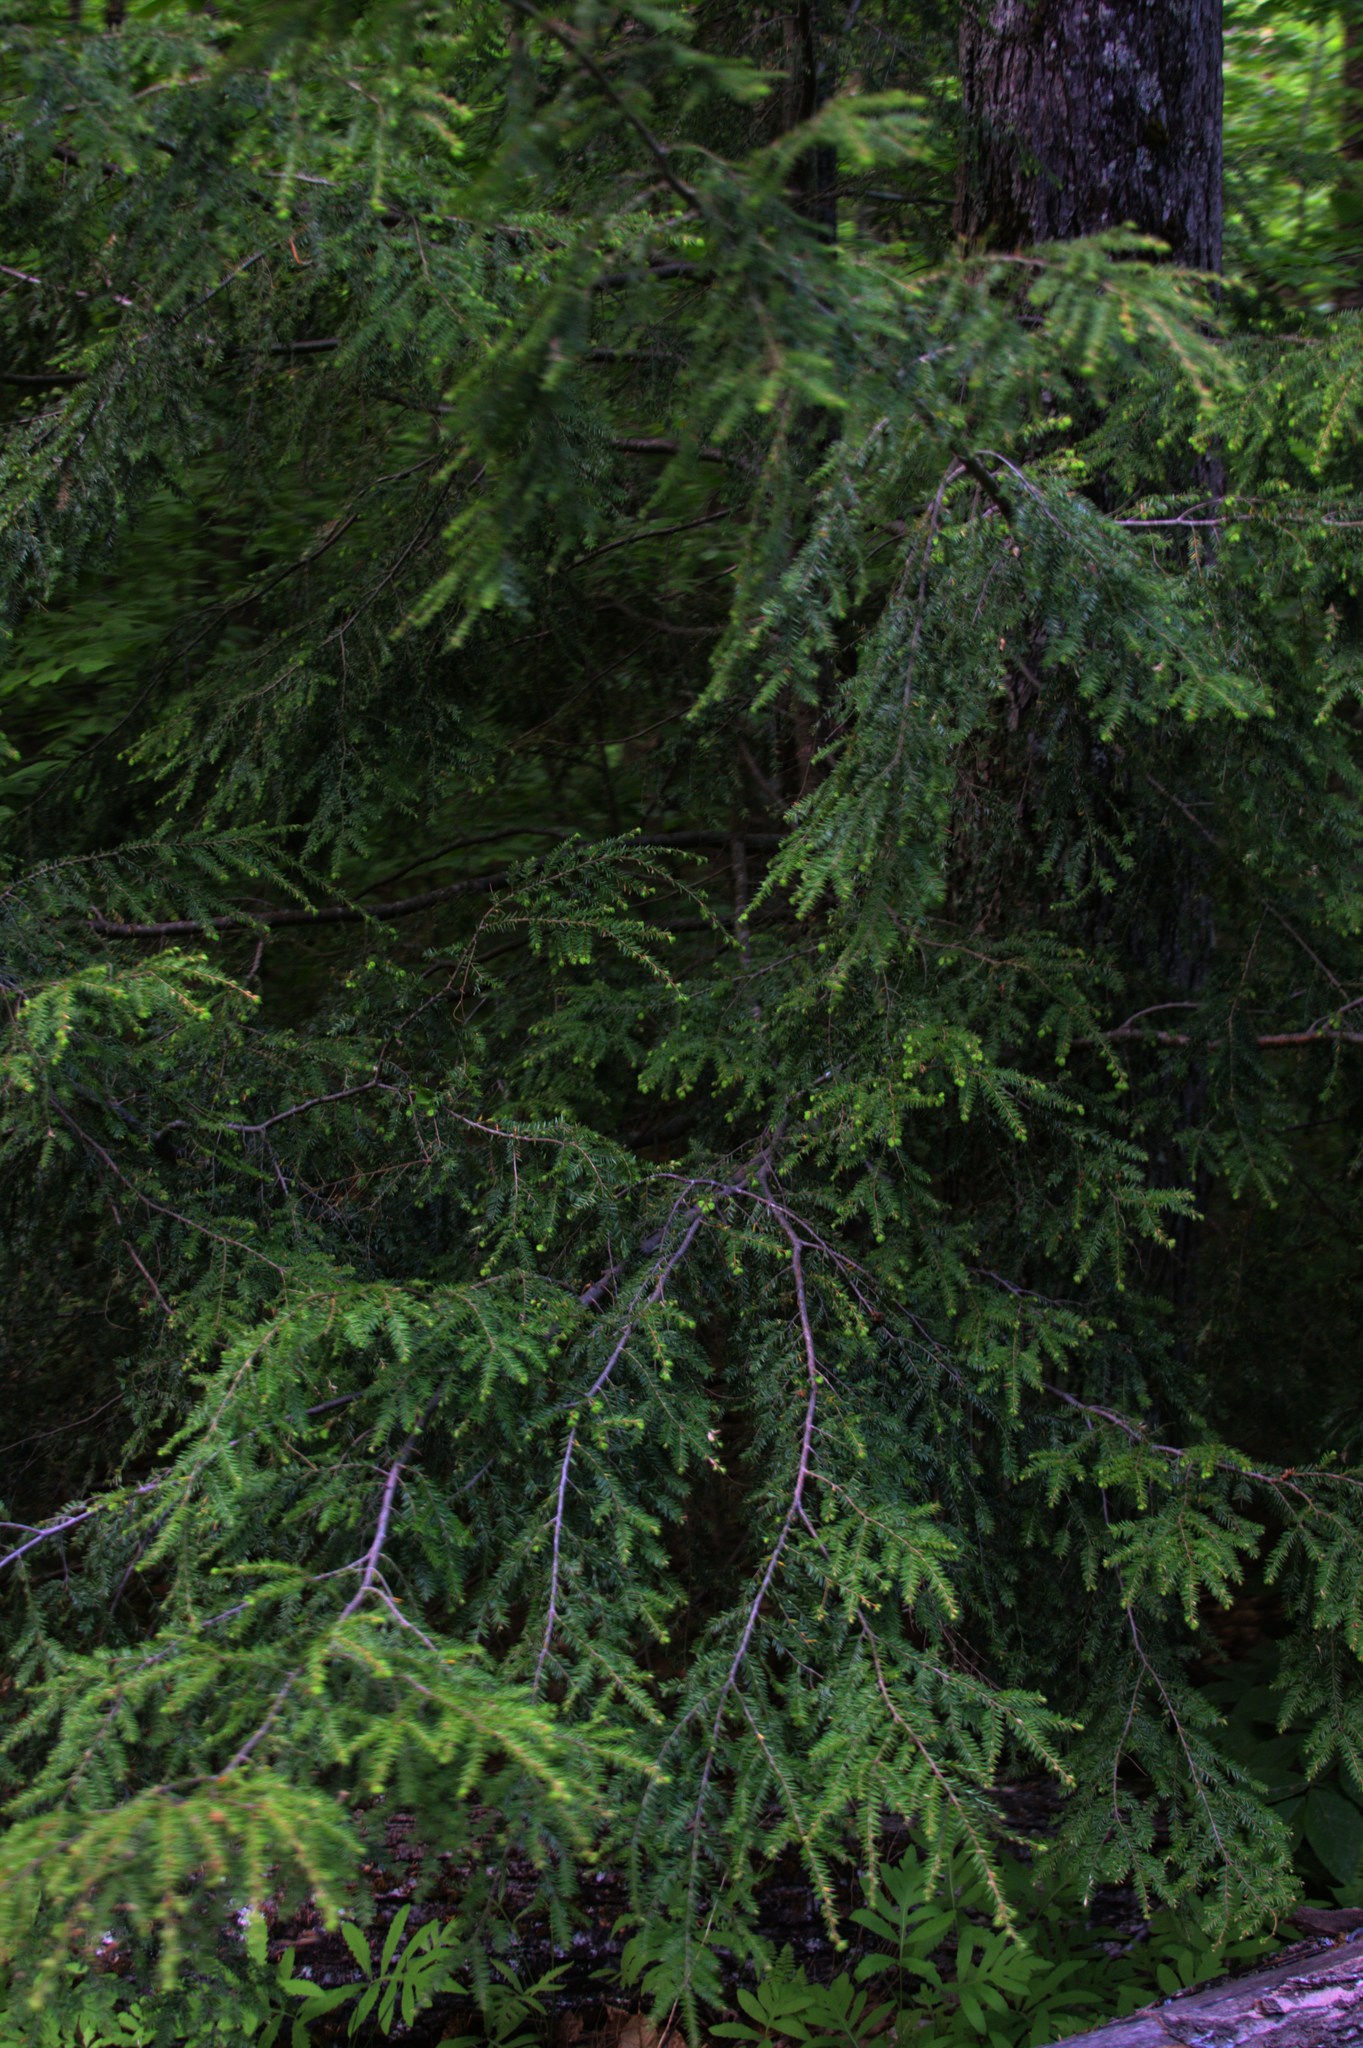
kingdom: Plantae
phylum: Tracheophyta
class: Pinopsida
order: Pinales
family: Pinaceae
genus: Tsuga
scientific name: Tsuga canadensis
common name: Eastern hemlock
